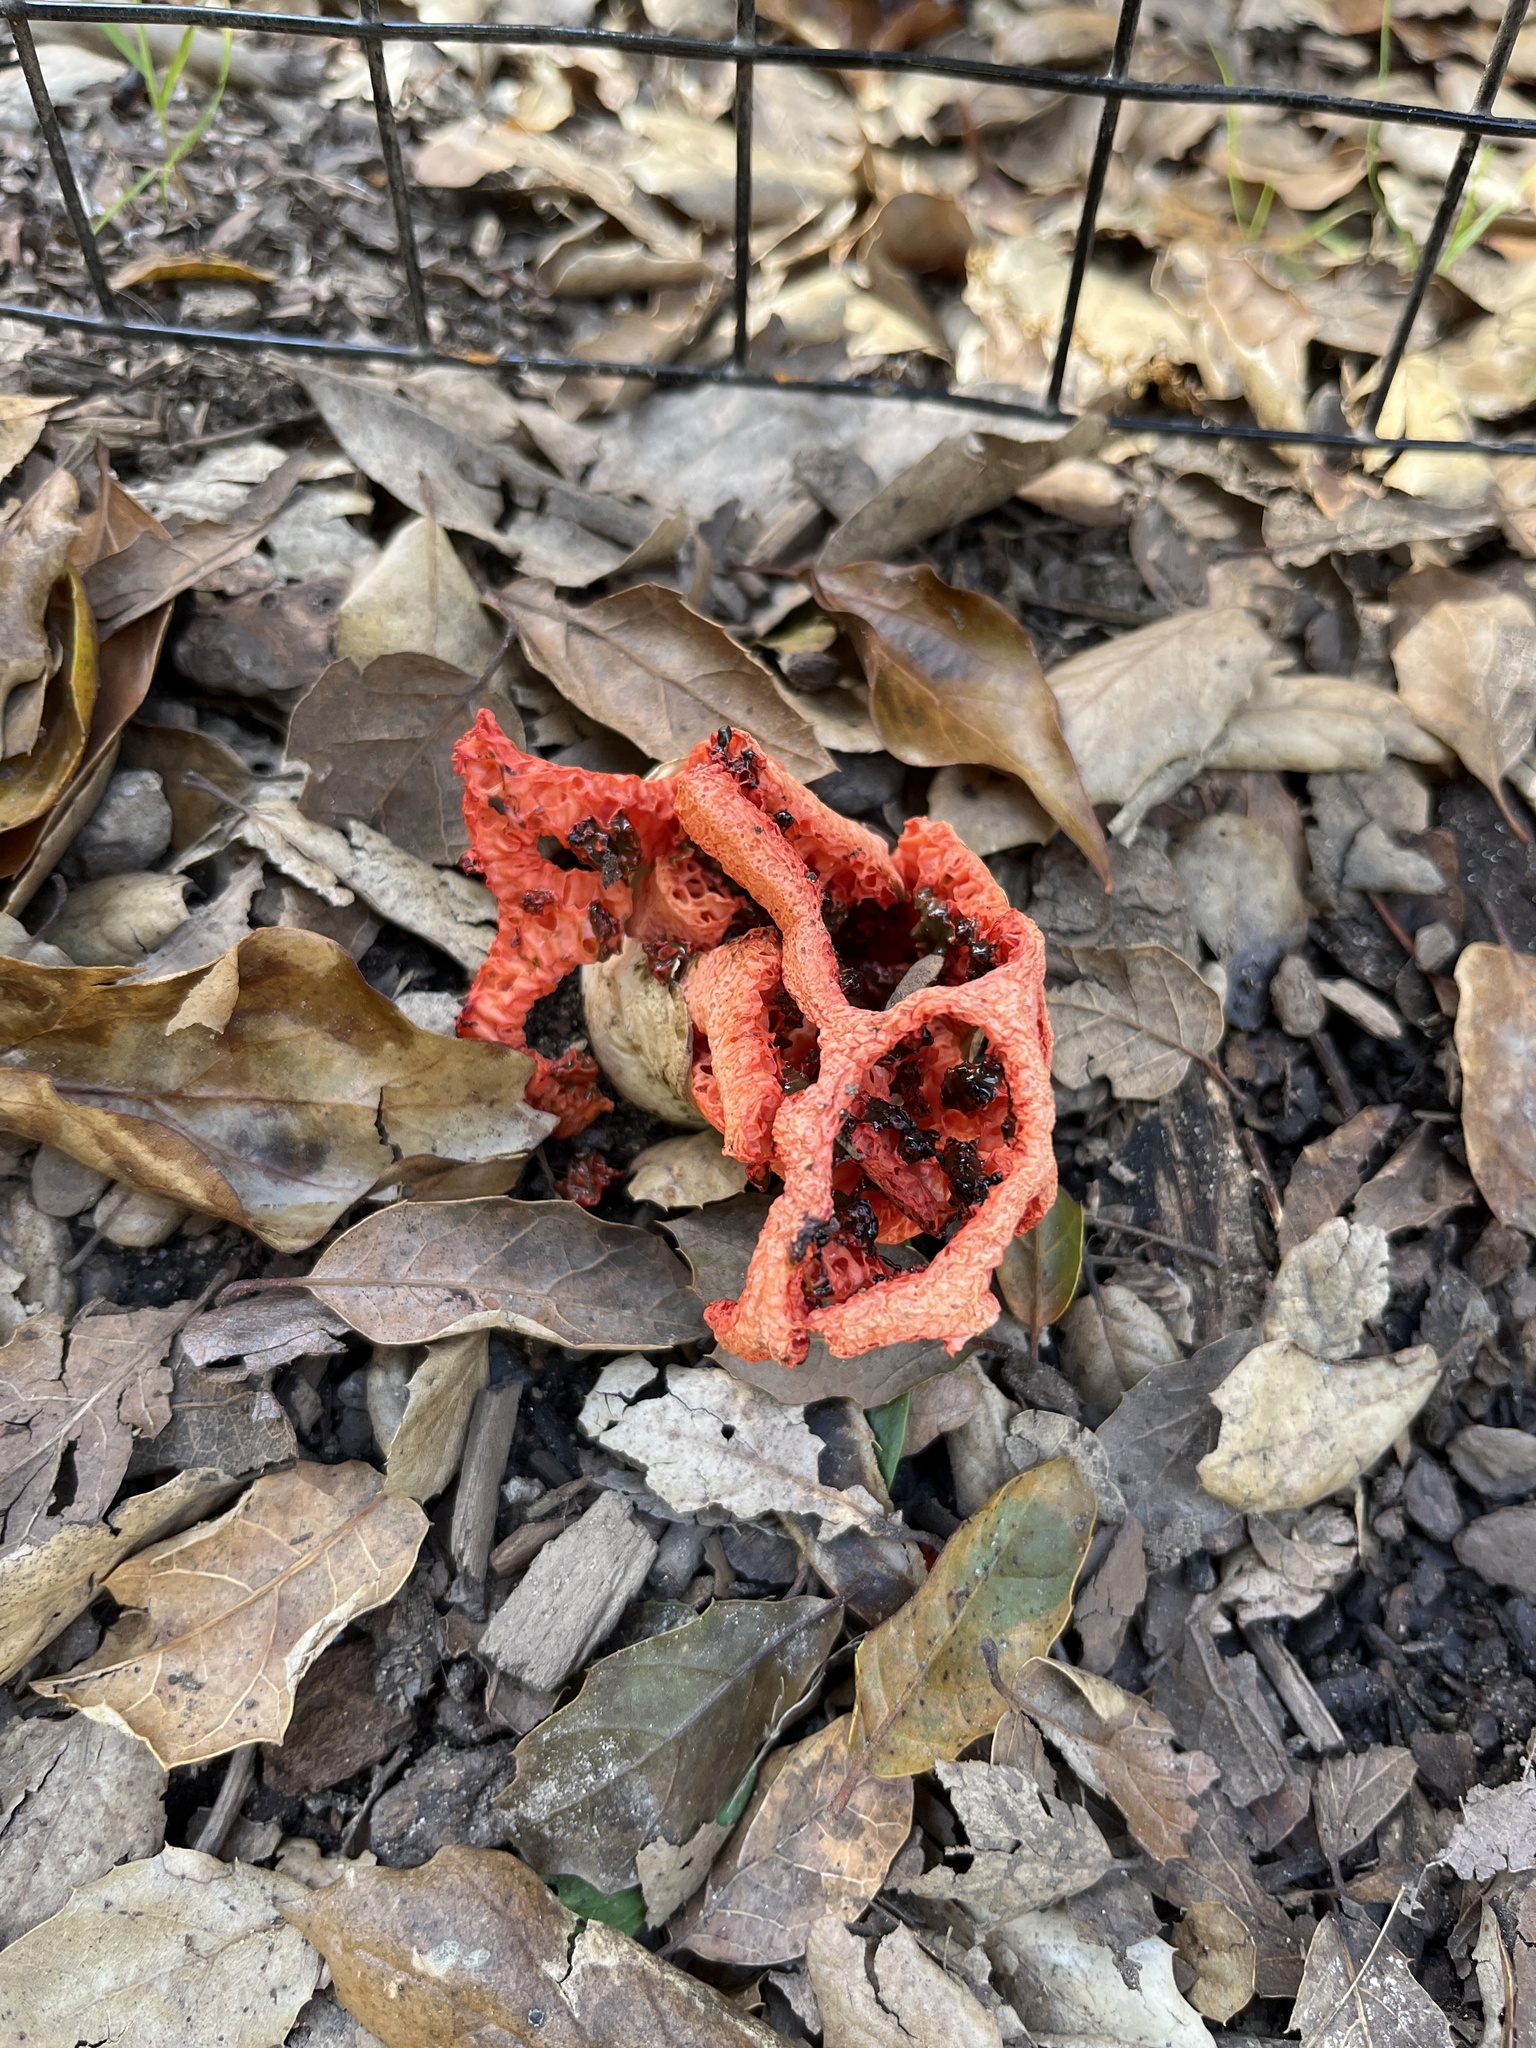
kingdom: Fungi
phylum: Basidiomycota
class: Agaricomycetes
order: Phallales
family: Phallaceae
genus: Clathrus
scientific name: Clathrus ruber
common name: Red cage
